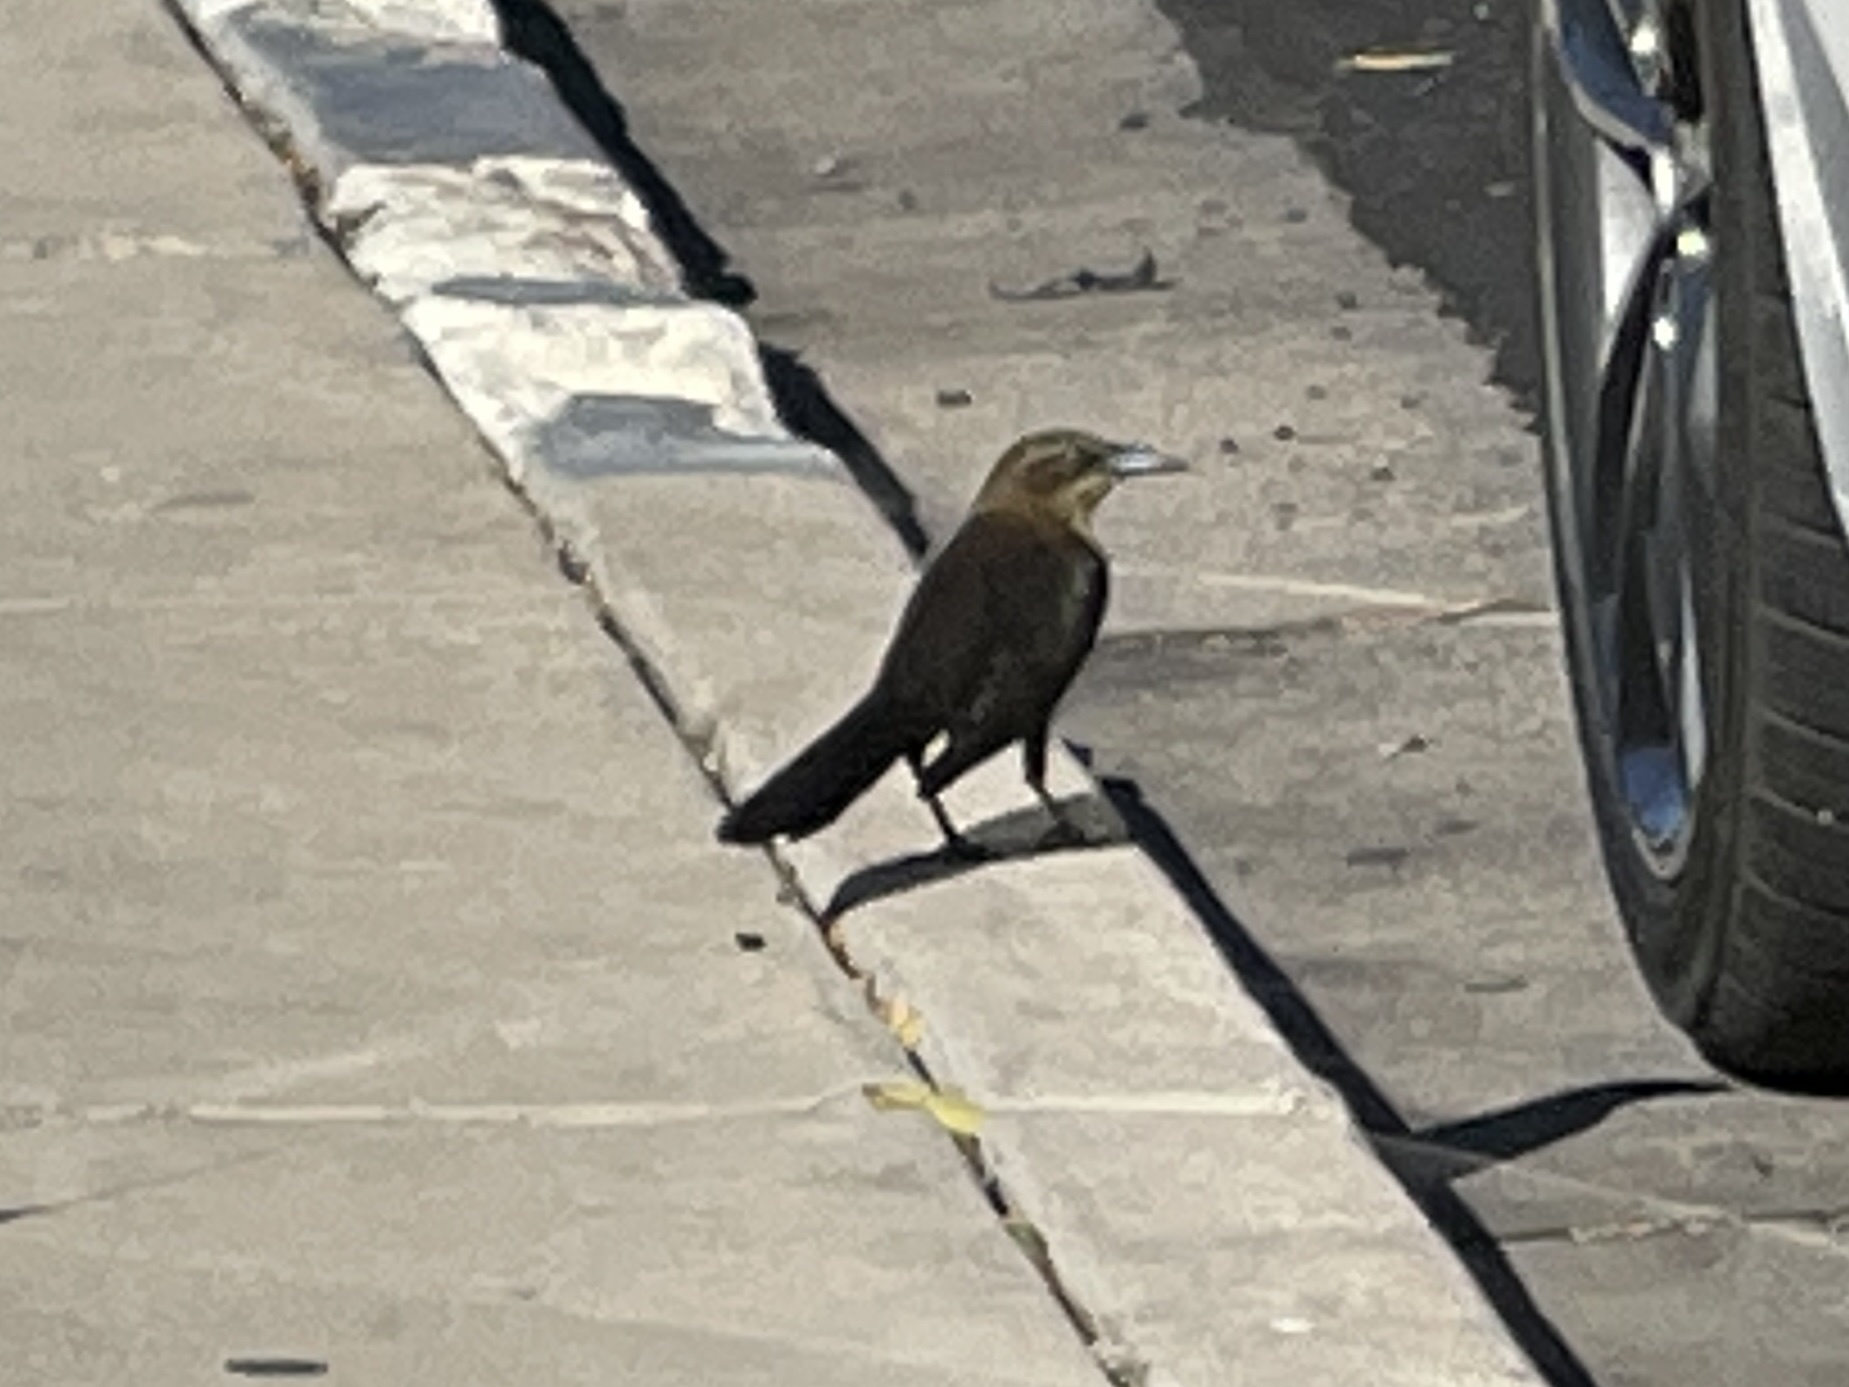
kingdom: Animalia
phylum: Chordata
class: Aves
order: Passeriformes
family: Icteridae
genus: Quiscalus
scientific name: Quiscalus mexicanus
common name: Great-tailed grackle
